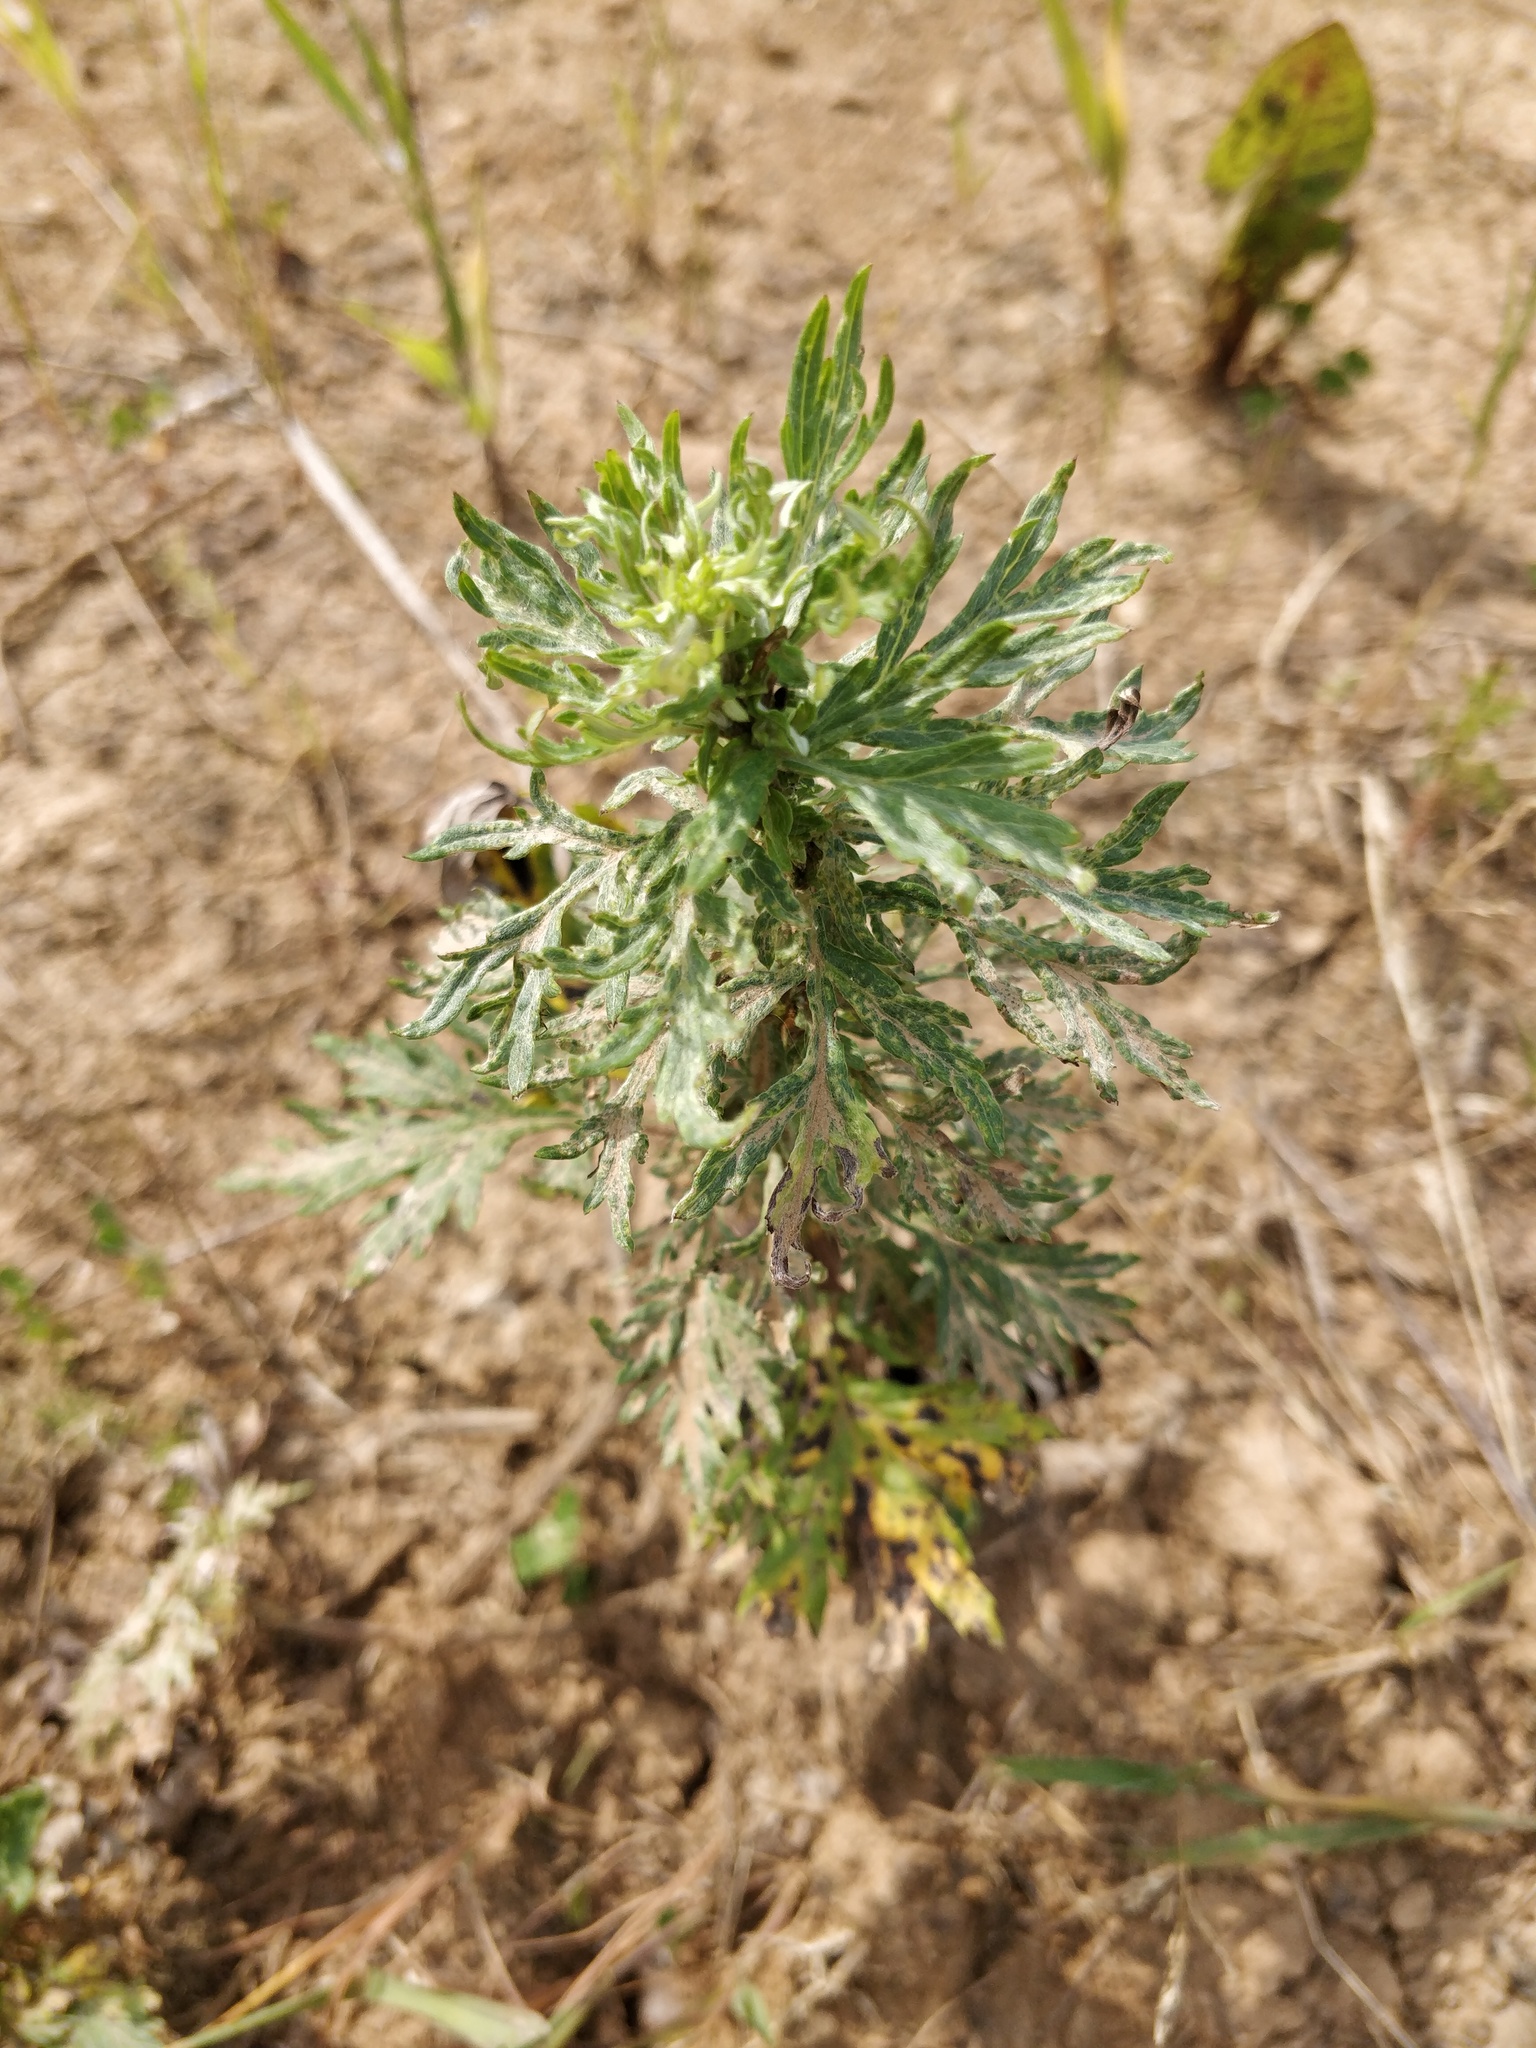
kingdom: Plantae
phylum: Tracheophyta
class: Magnoliopsida
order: Asterales
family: Asteraceae
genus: Artemisia
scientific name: Artemisia vulgaris
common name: Mugwort
